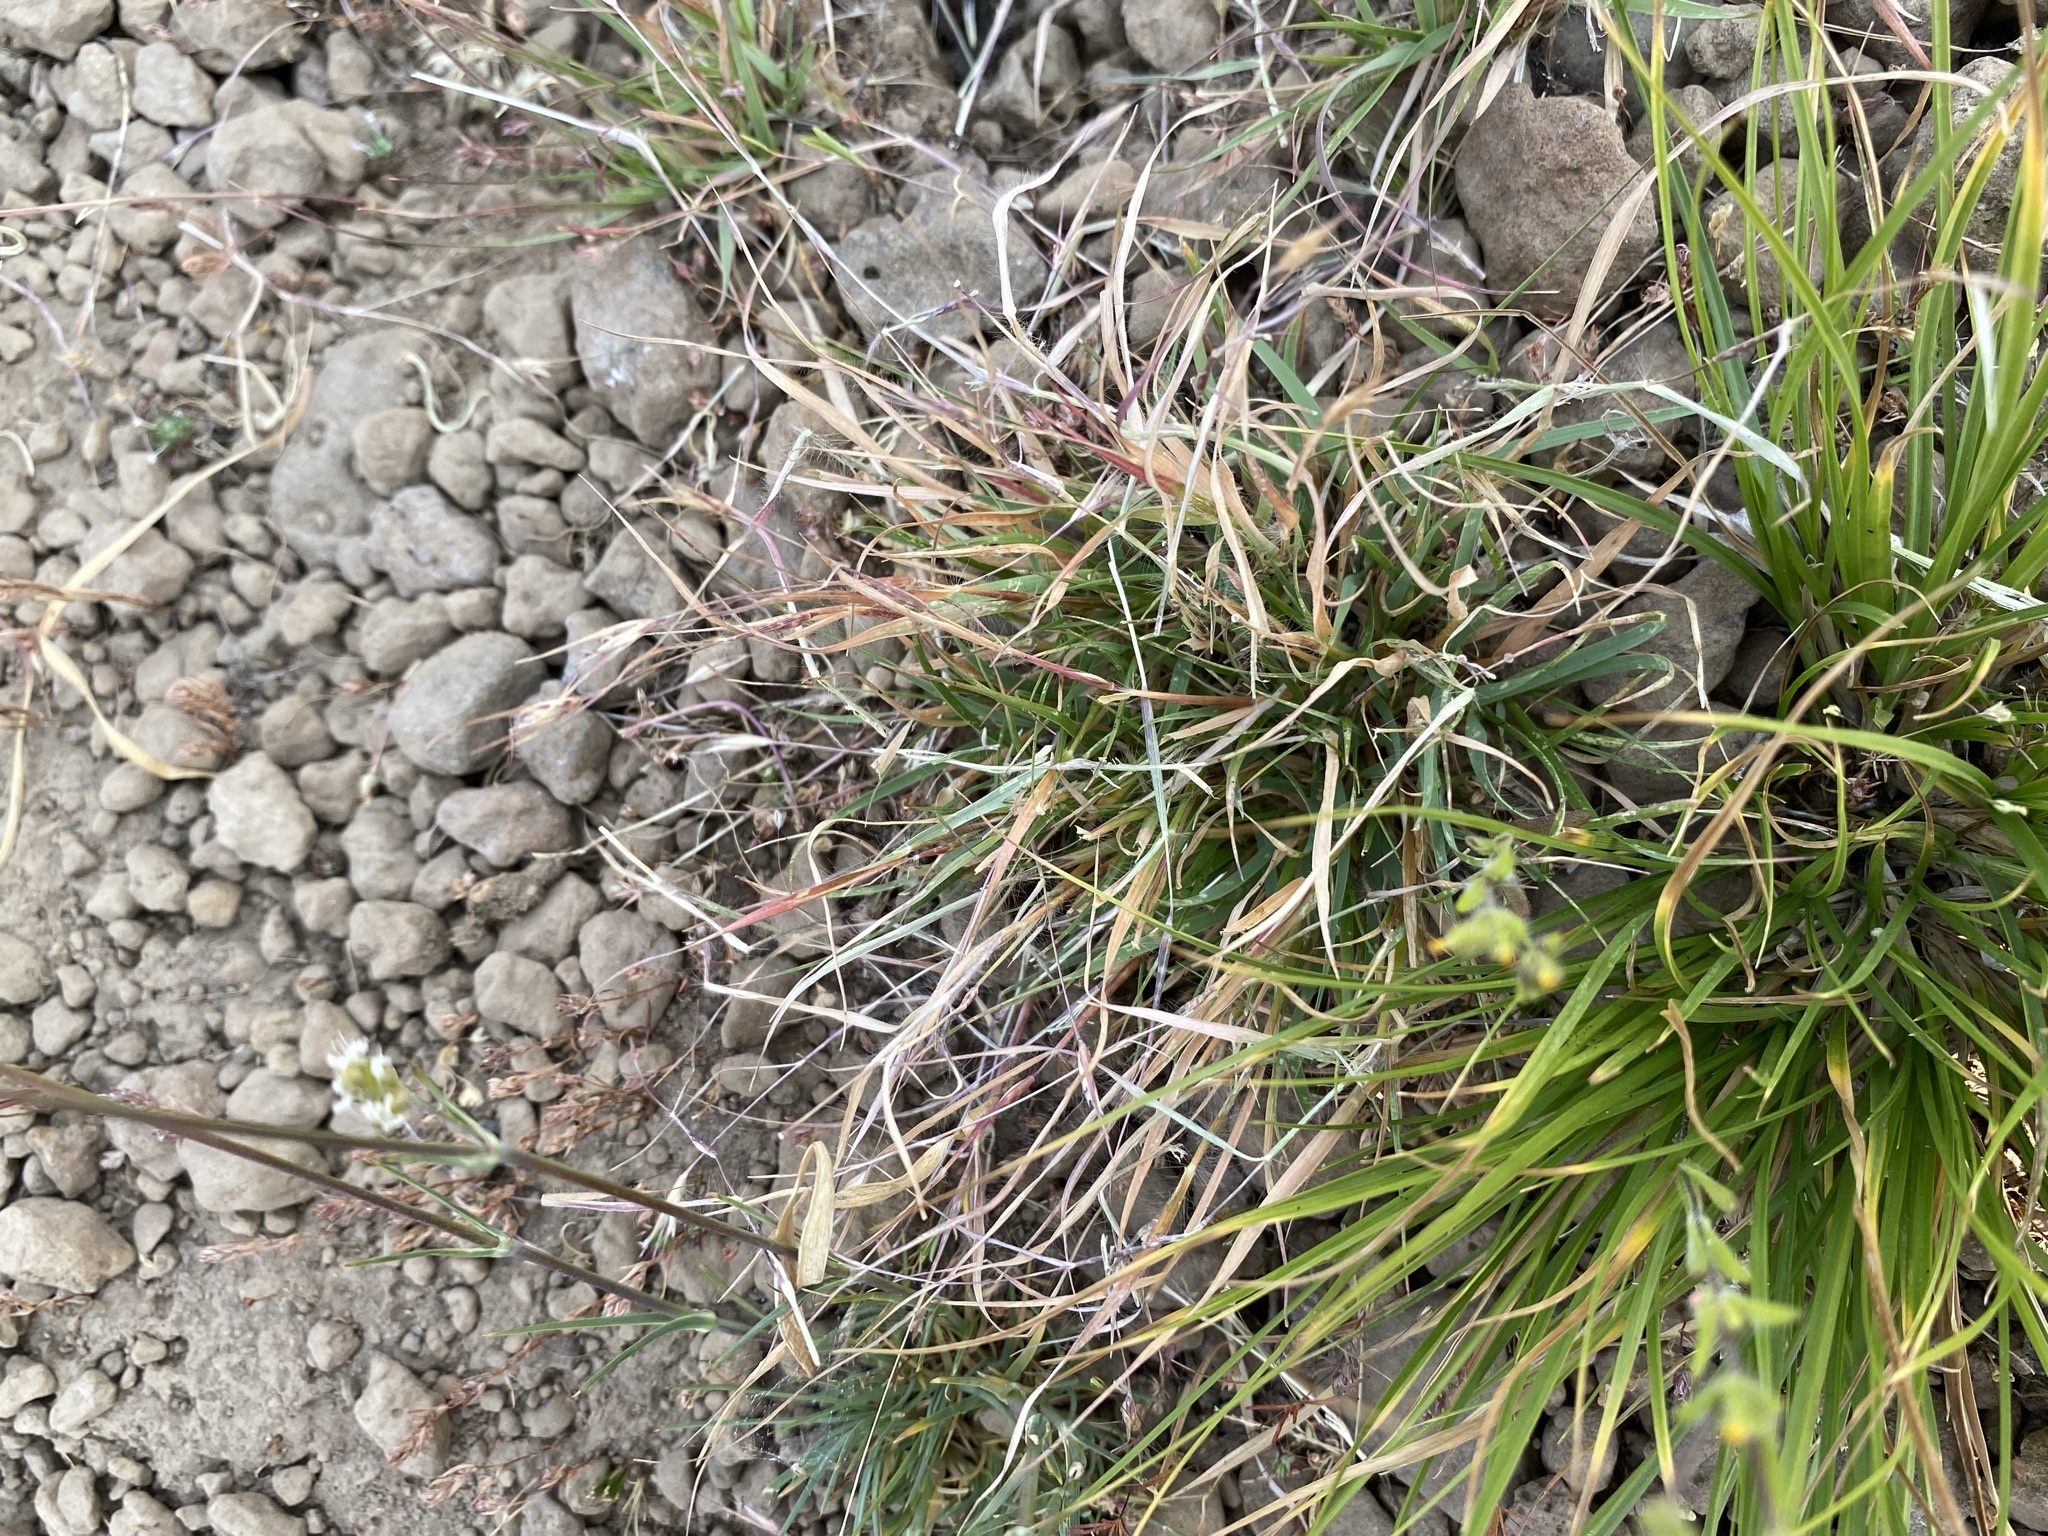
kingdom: Plantae
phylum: Tracheophyta
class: Liliopsida
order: Poales
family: Poaceae
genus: Danthonia
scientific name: Danthonia unispicata
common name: Few-flowered oatgrass
